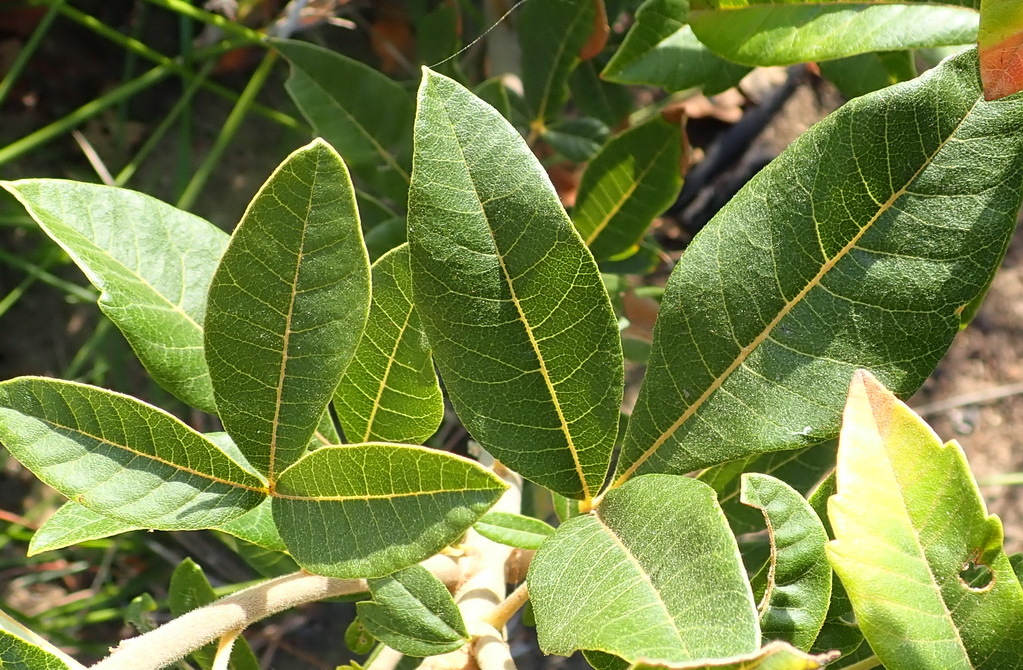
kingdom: Plantae
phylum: Tracheophyta
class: Magnoliopsida
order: Sapindales
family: Anacardiaceae
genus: Searsia
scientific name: Searsia tomentosa
